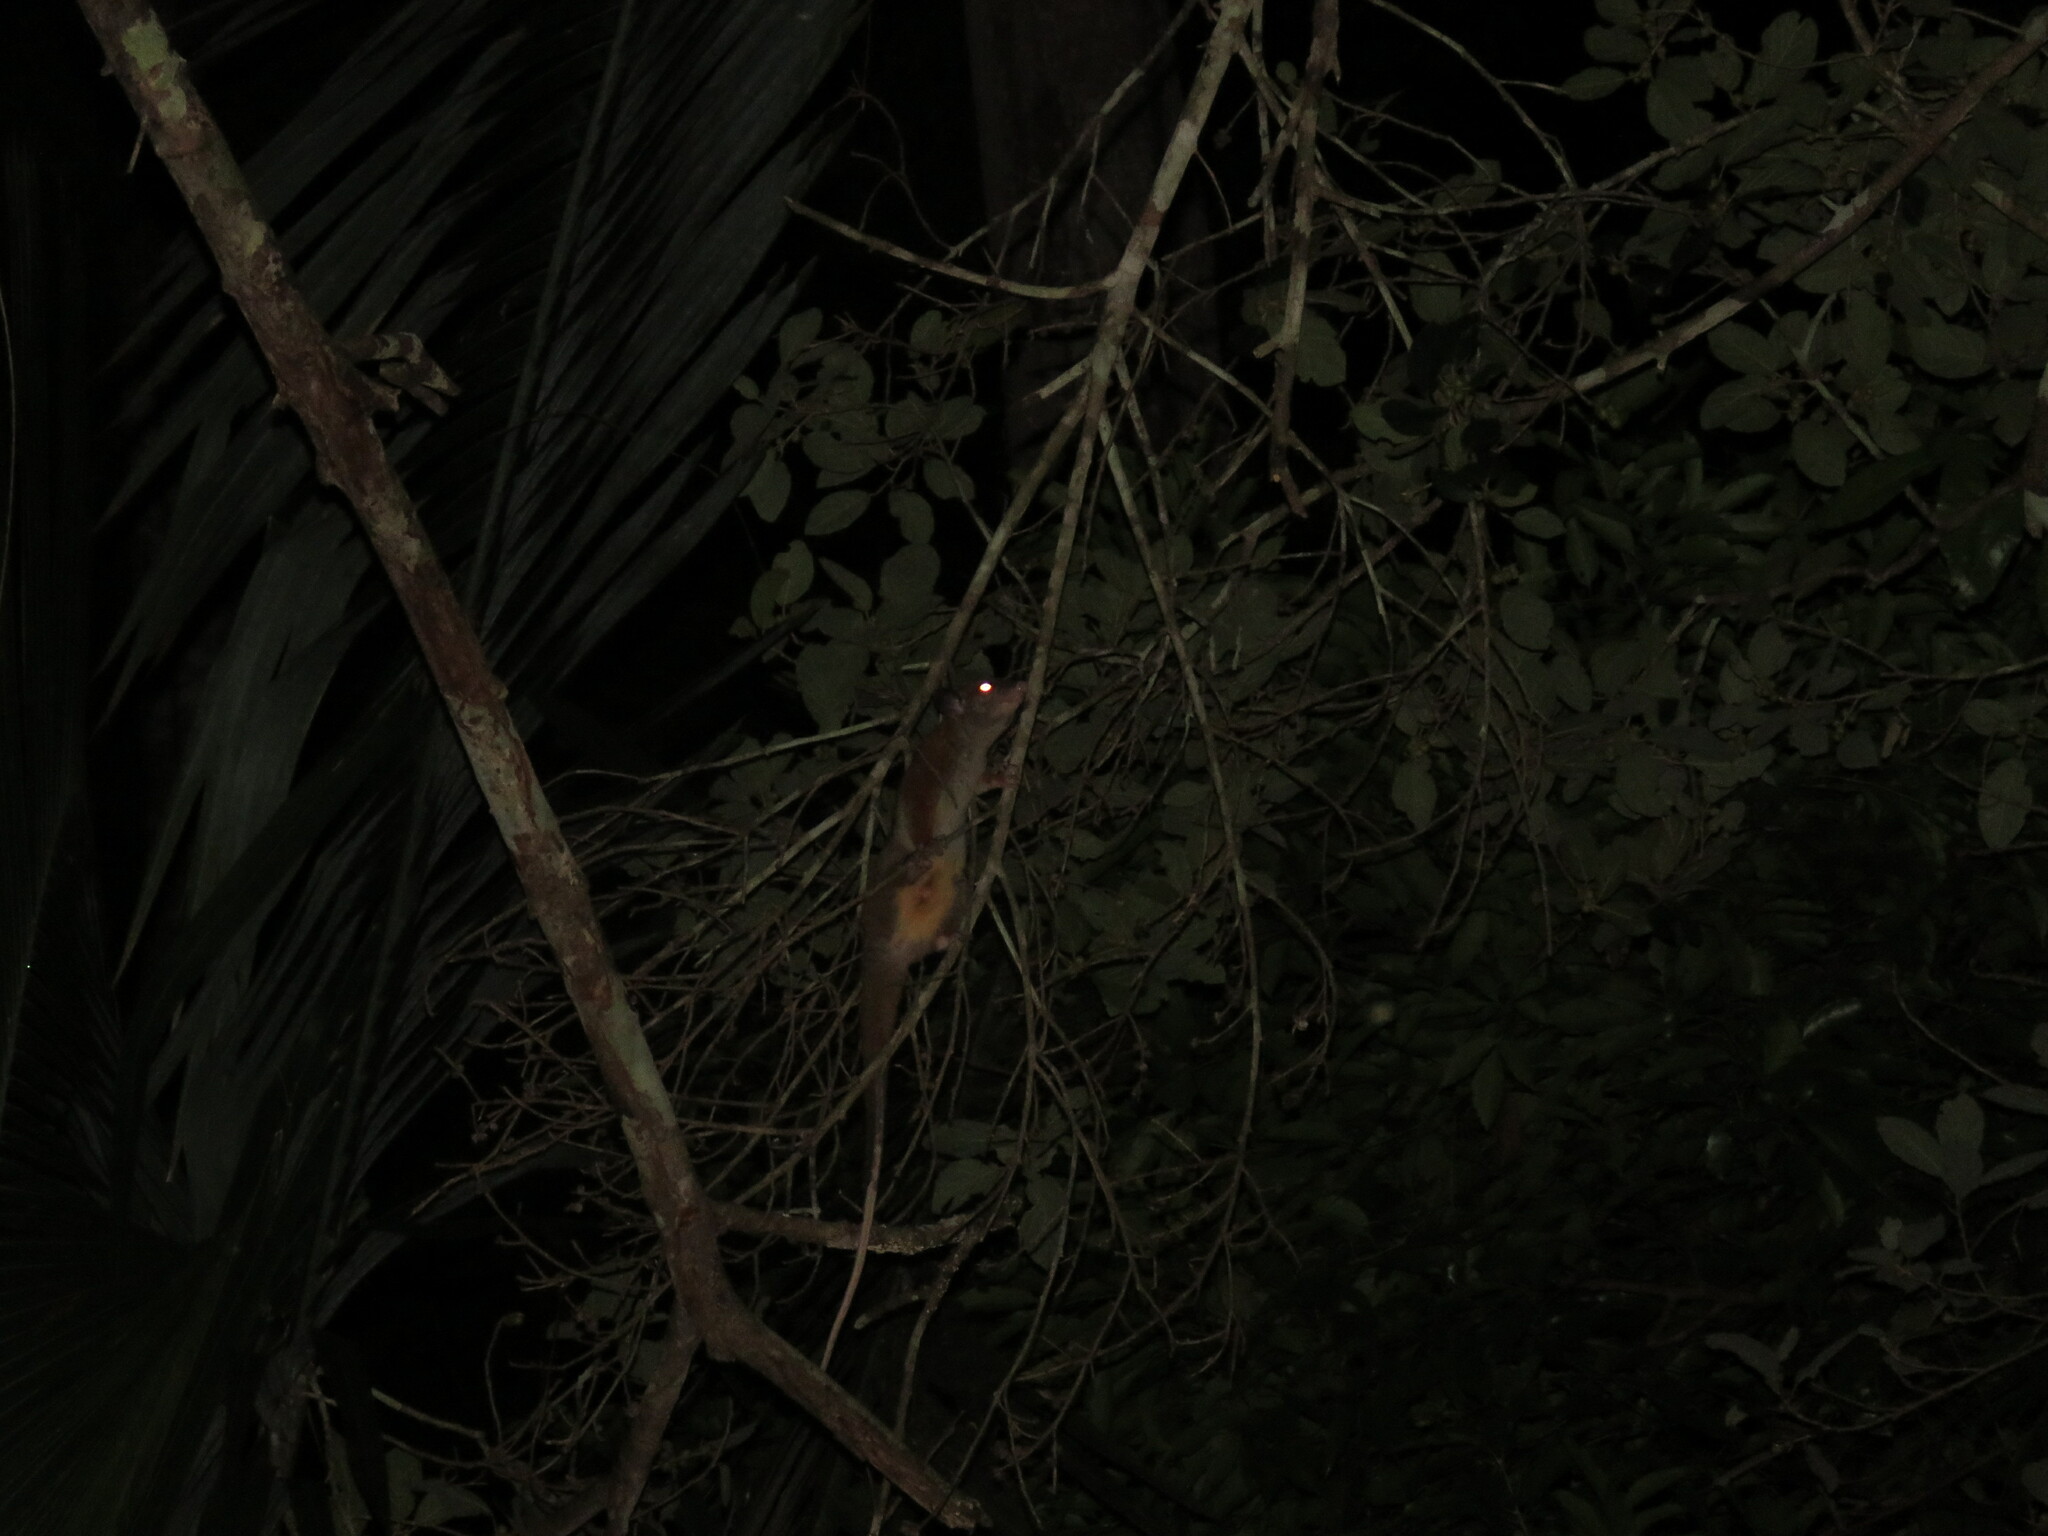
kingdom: Animalia
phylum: Chordata
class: Mammalia
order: Didelphimorphia
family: Didelphidae
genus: Caluromys
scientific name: Caluromys lanatus
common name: Brown-eared woolly opossum
